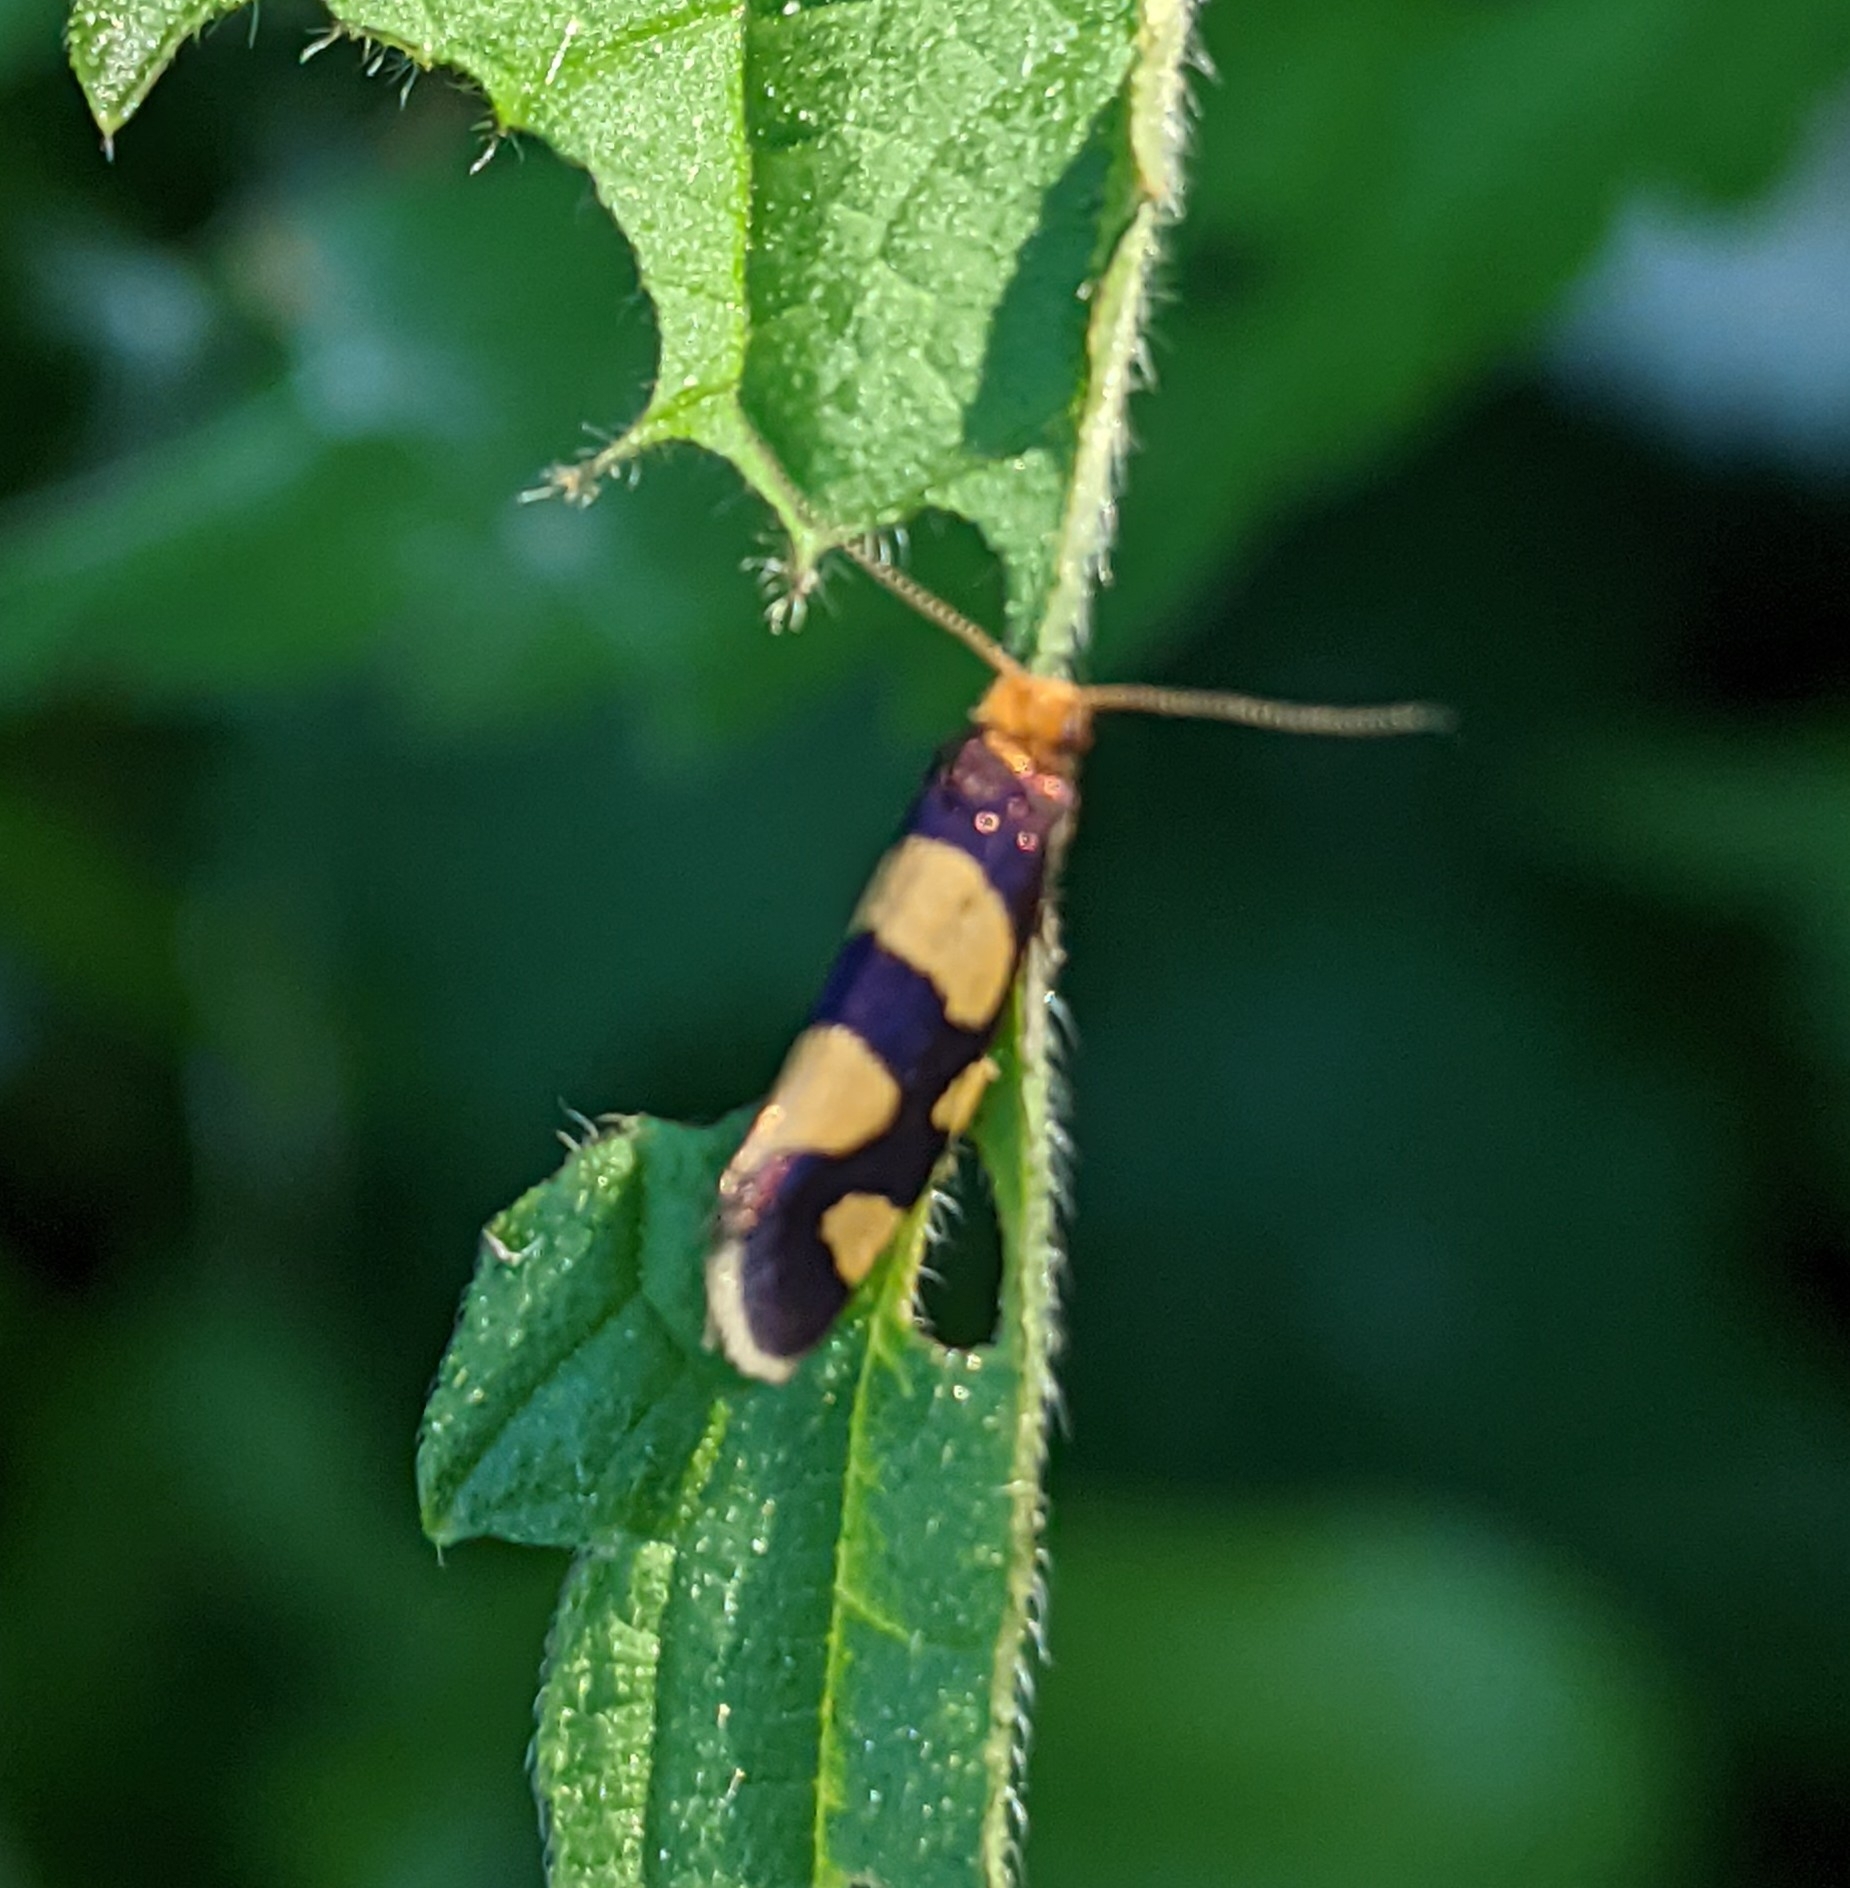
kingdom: Animalia
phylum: Arthropoda
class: Insecta
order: Lepidoptera
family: Incurvariidae
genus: Incurvaria
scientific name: Incurvaria rupella
